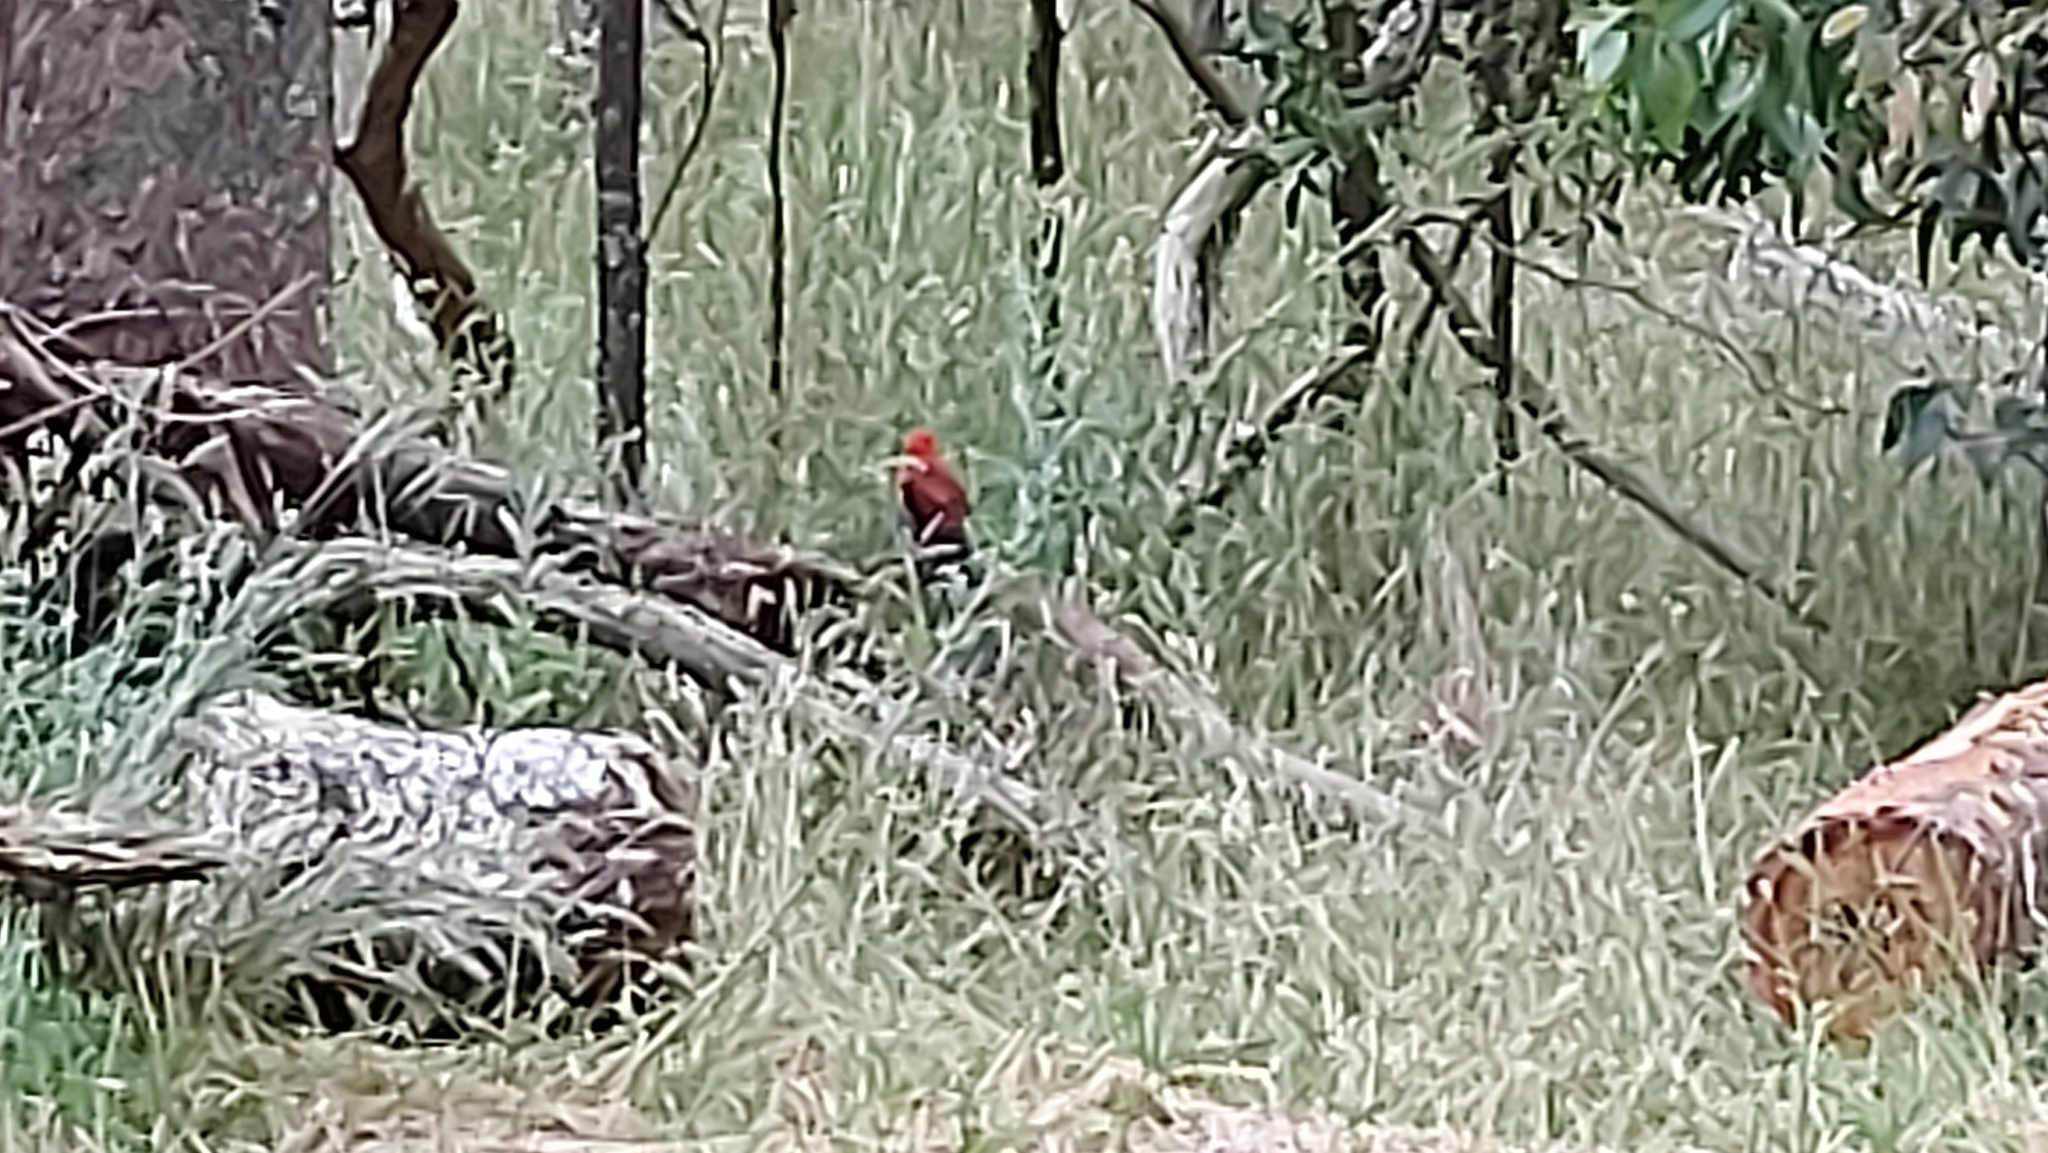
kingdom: Animalia
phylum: Chordata
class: Aves
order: Psittaciformes
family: Psittacidae
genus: Platycercus
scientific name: Platycercus elegans
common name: Crimson rosella
